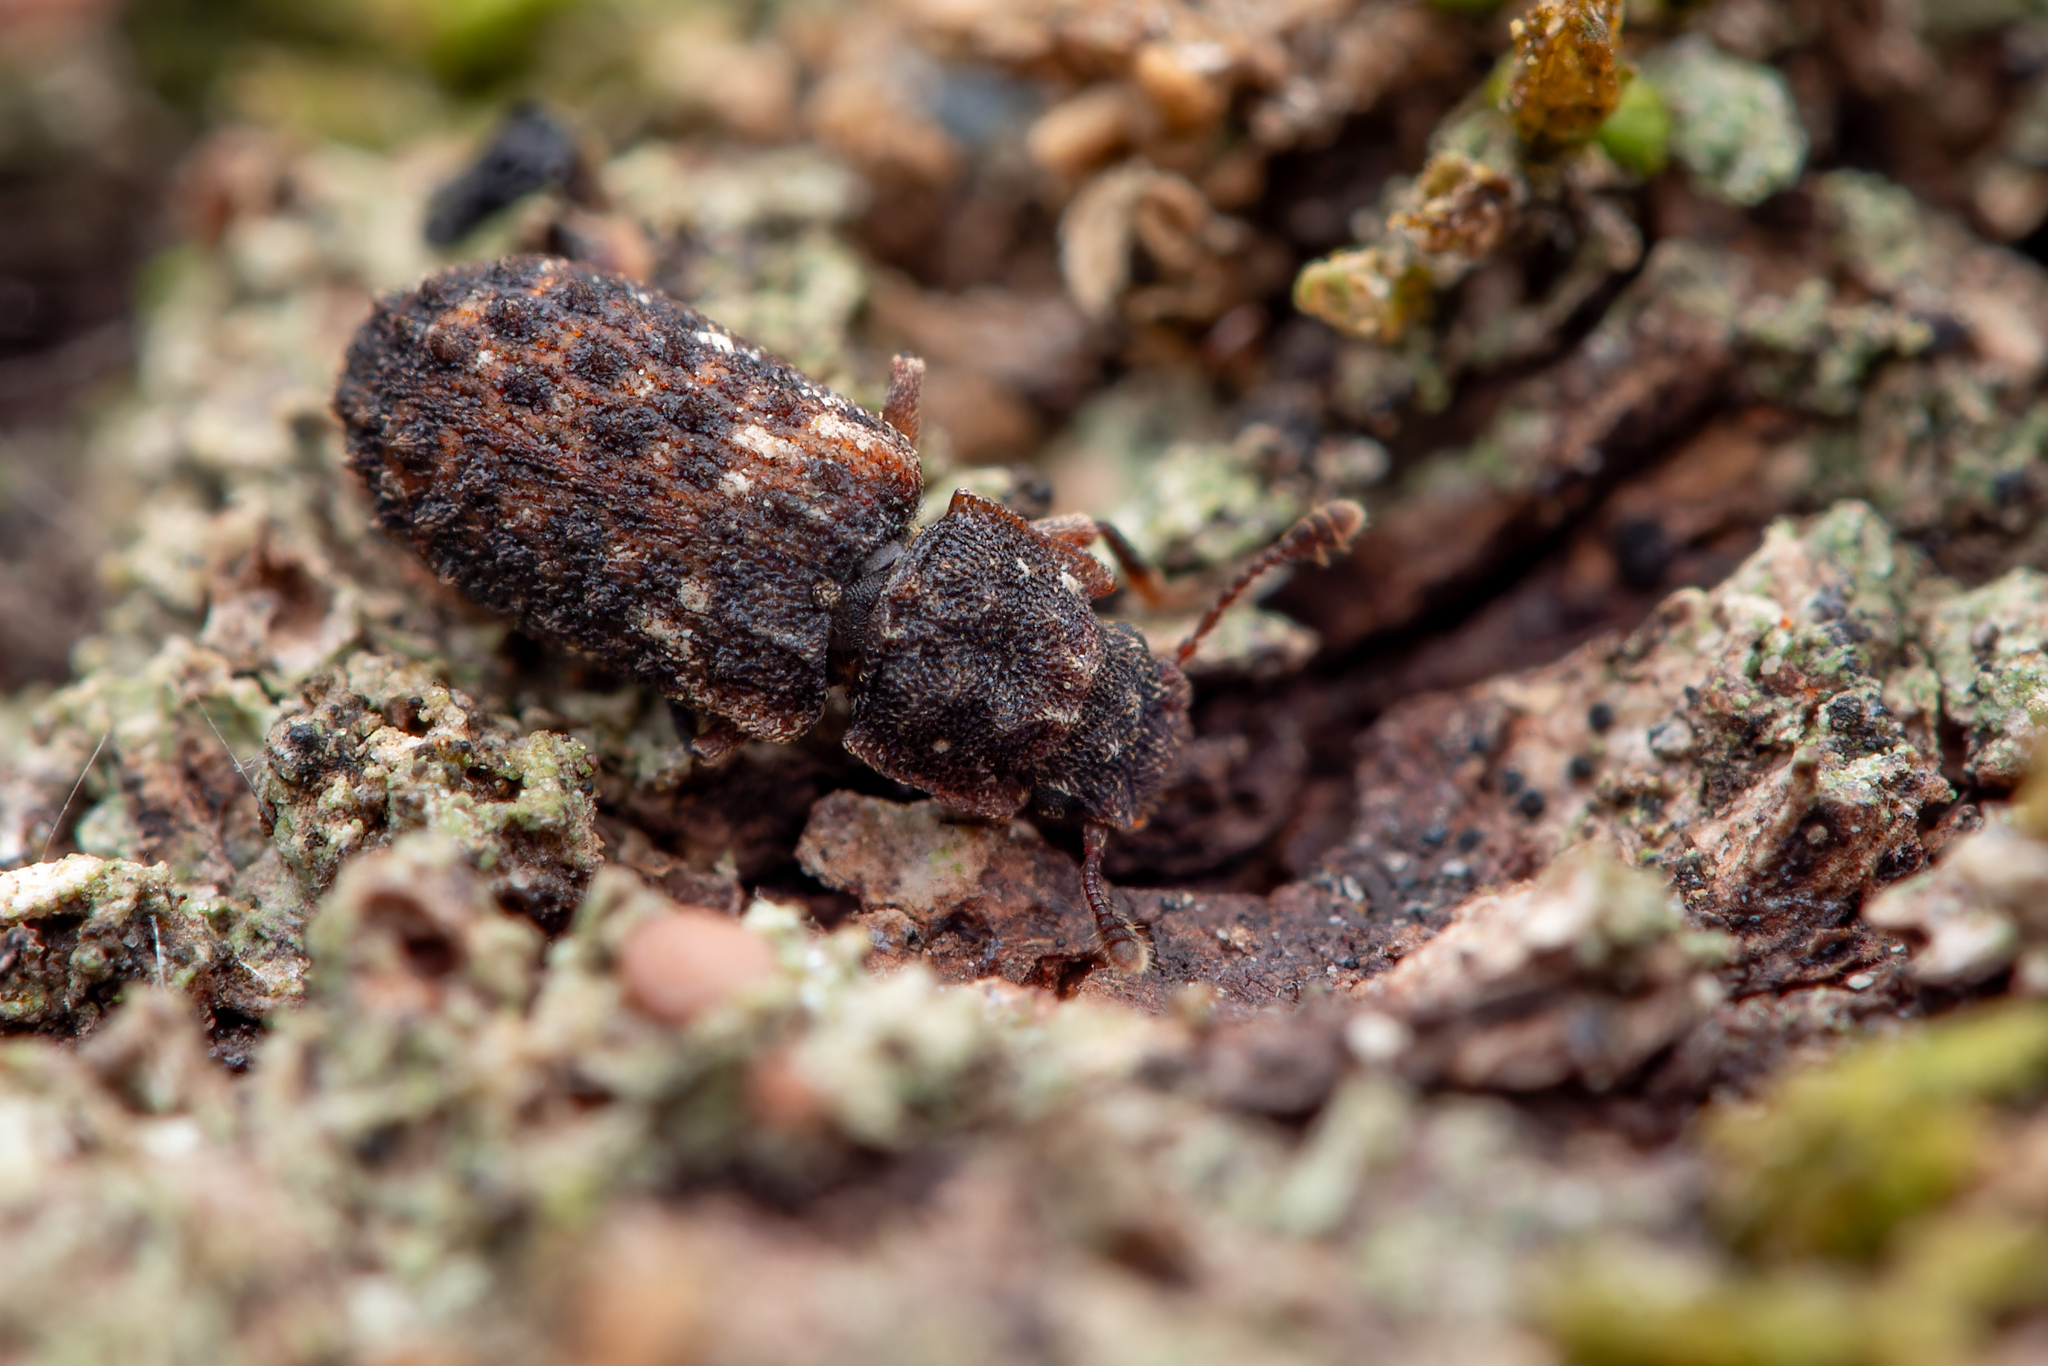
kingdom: Animalia
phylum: Arthropoda
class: Insecta
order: Coleoptera
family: Zopheridae
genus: Pristoderus
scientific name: Pristoderus
